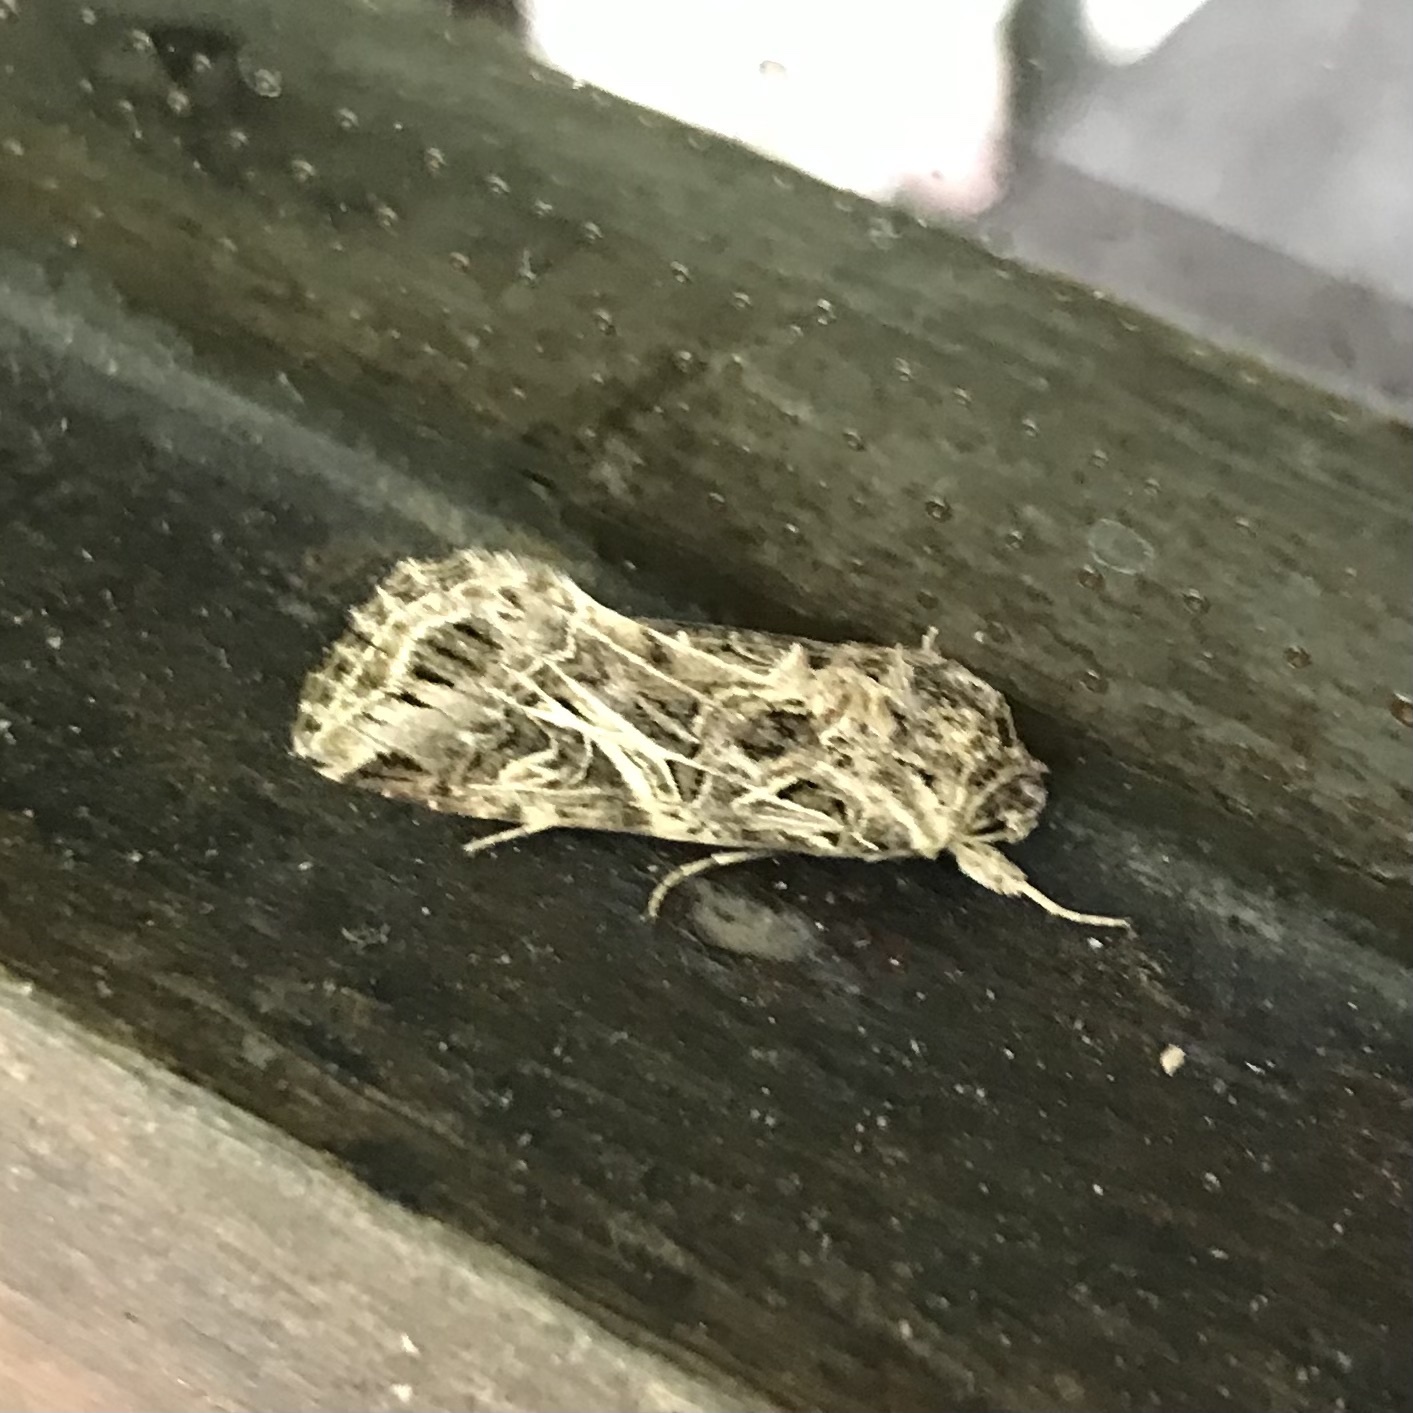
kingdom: Animalia
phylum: Arthropoda
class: Insecta
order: Lepidoptera
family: Noctuidae
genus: Spodoptera
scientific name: Spodoptera litura
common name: Asian cotton leafworm
